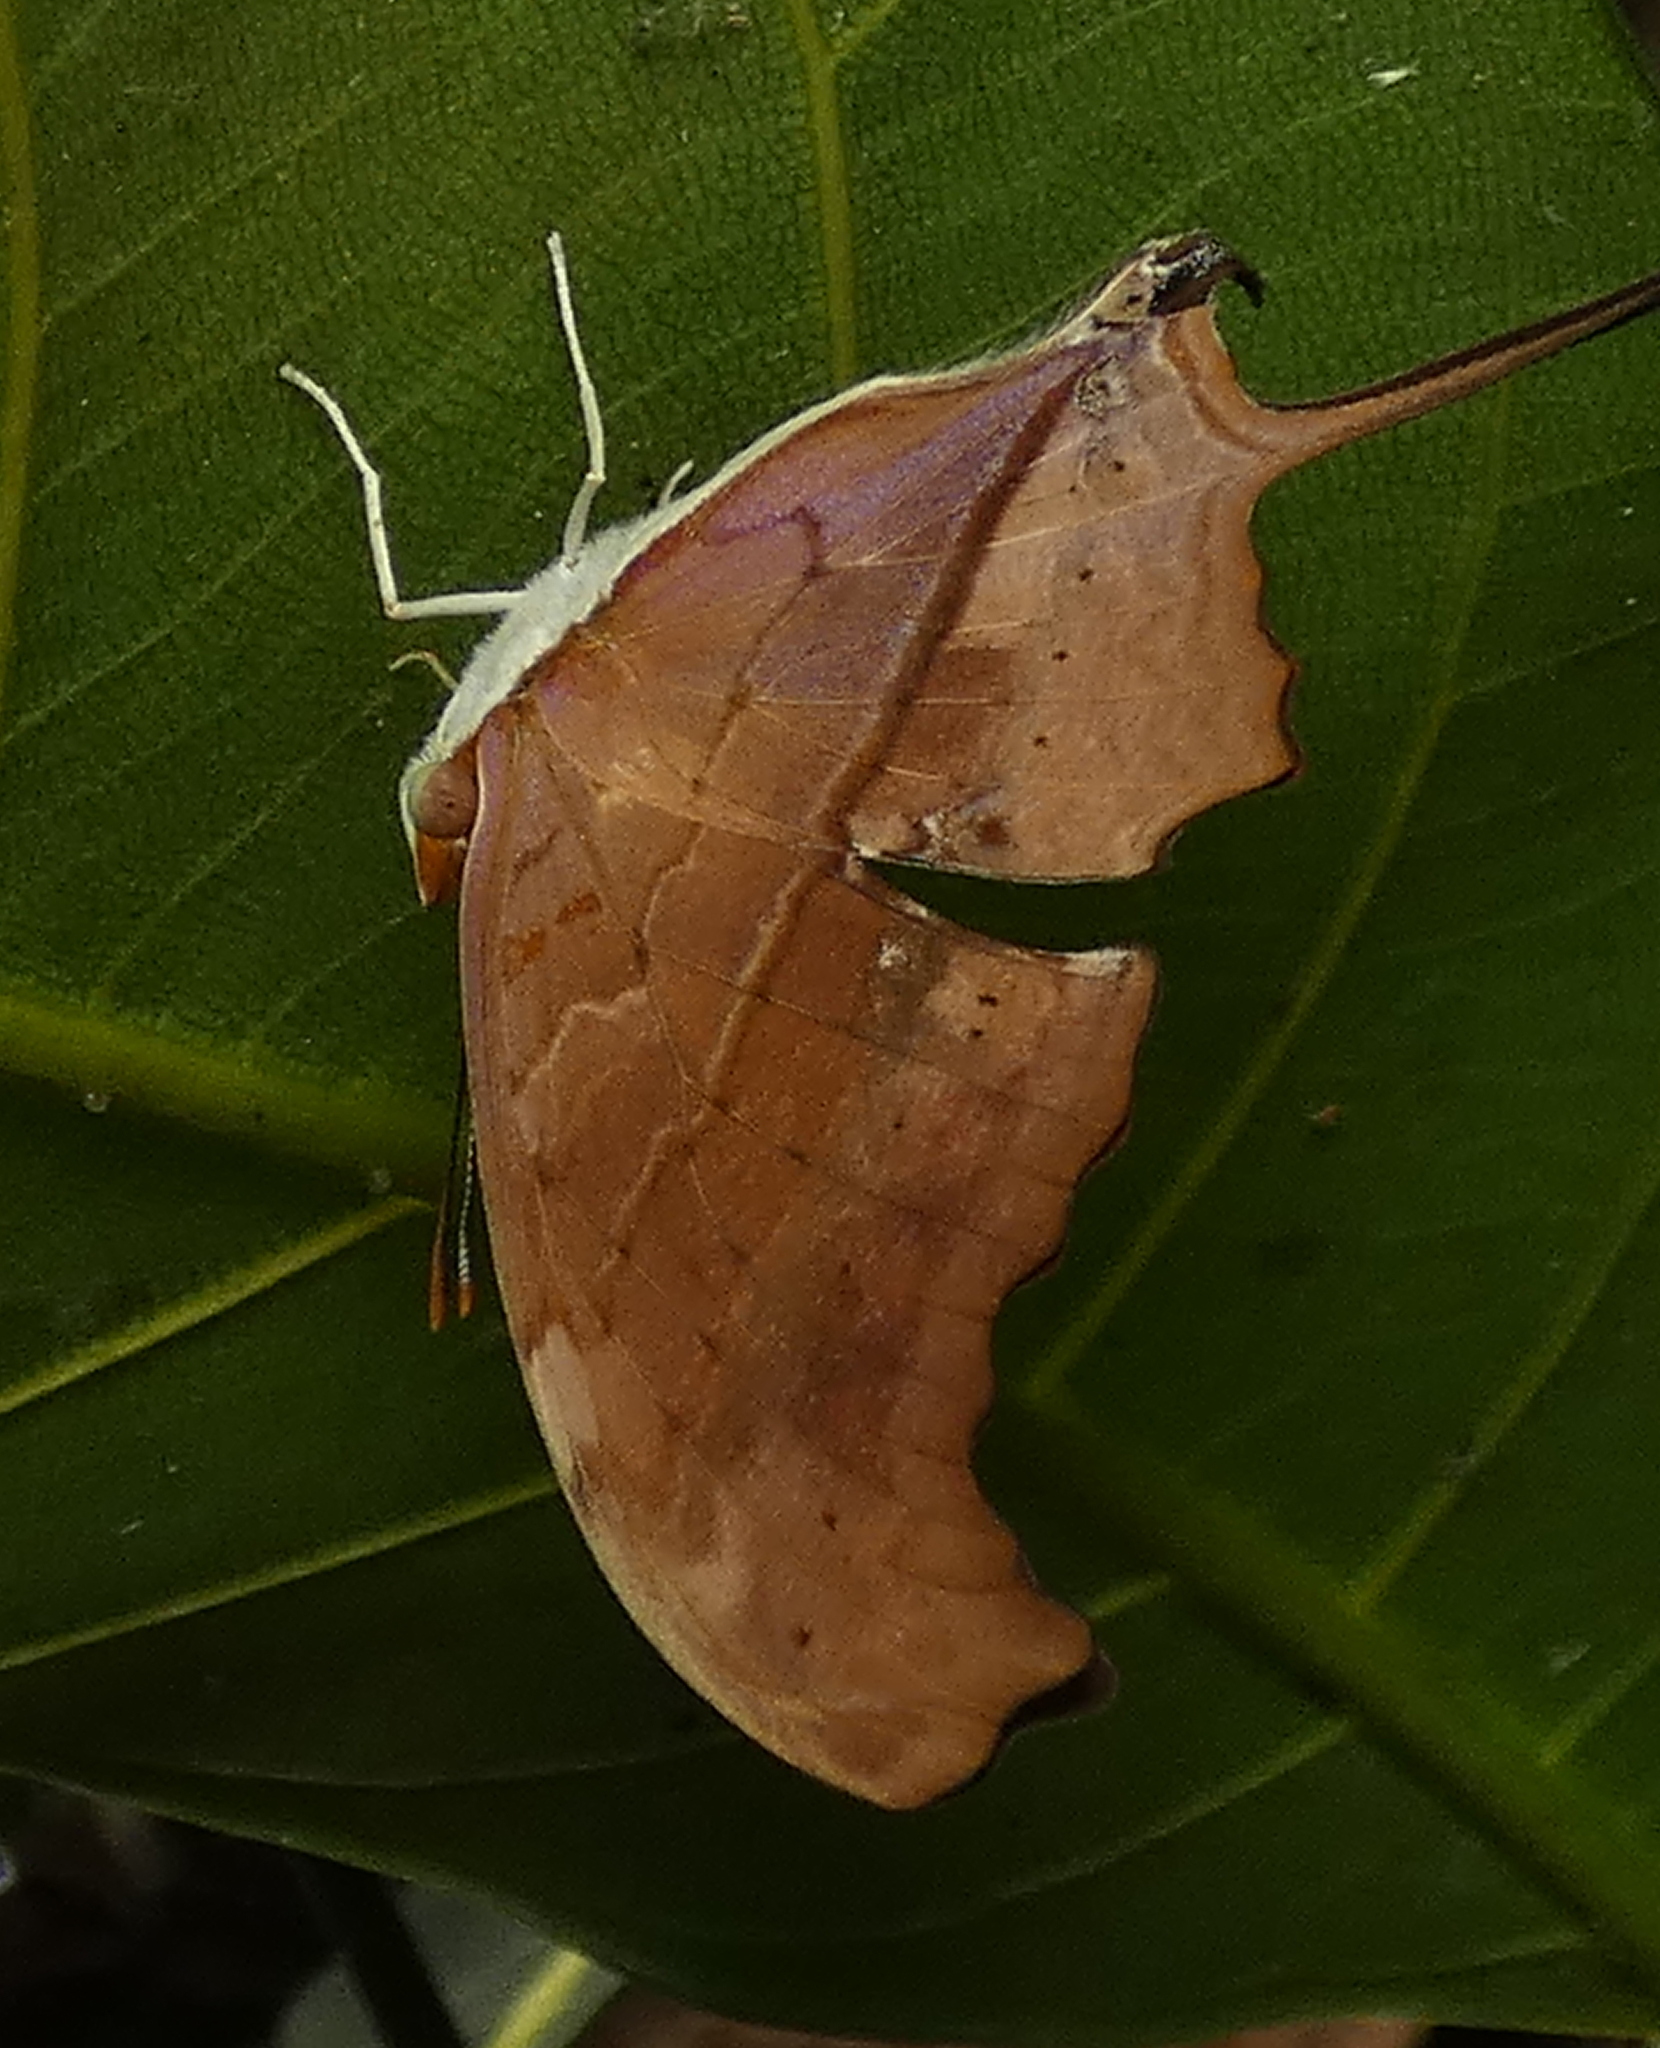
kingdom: Animalia
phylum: Arthropoda
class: Insecta
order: Lepidoptera
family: Nymphalidae
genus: Marpesia
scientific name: Marpesia petreus
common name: Red dagger wing
